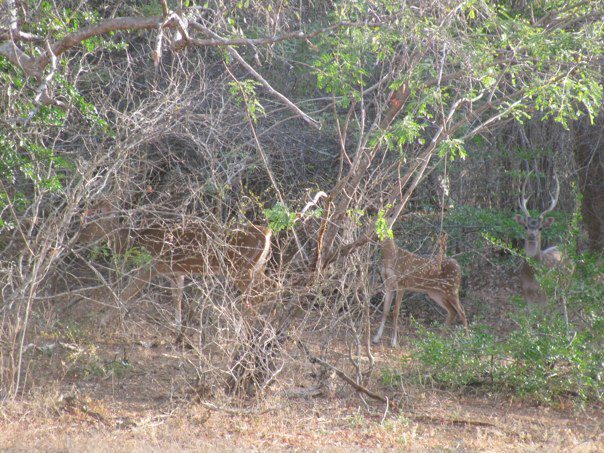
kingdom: Animalia
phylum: Chordata
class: Mammalia
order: Artiodactyla
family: Cervidae
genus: Axis
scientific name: Axis axis
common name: Chital
